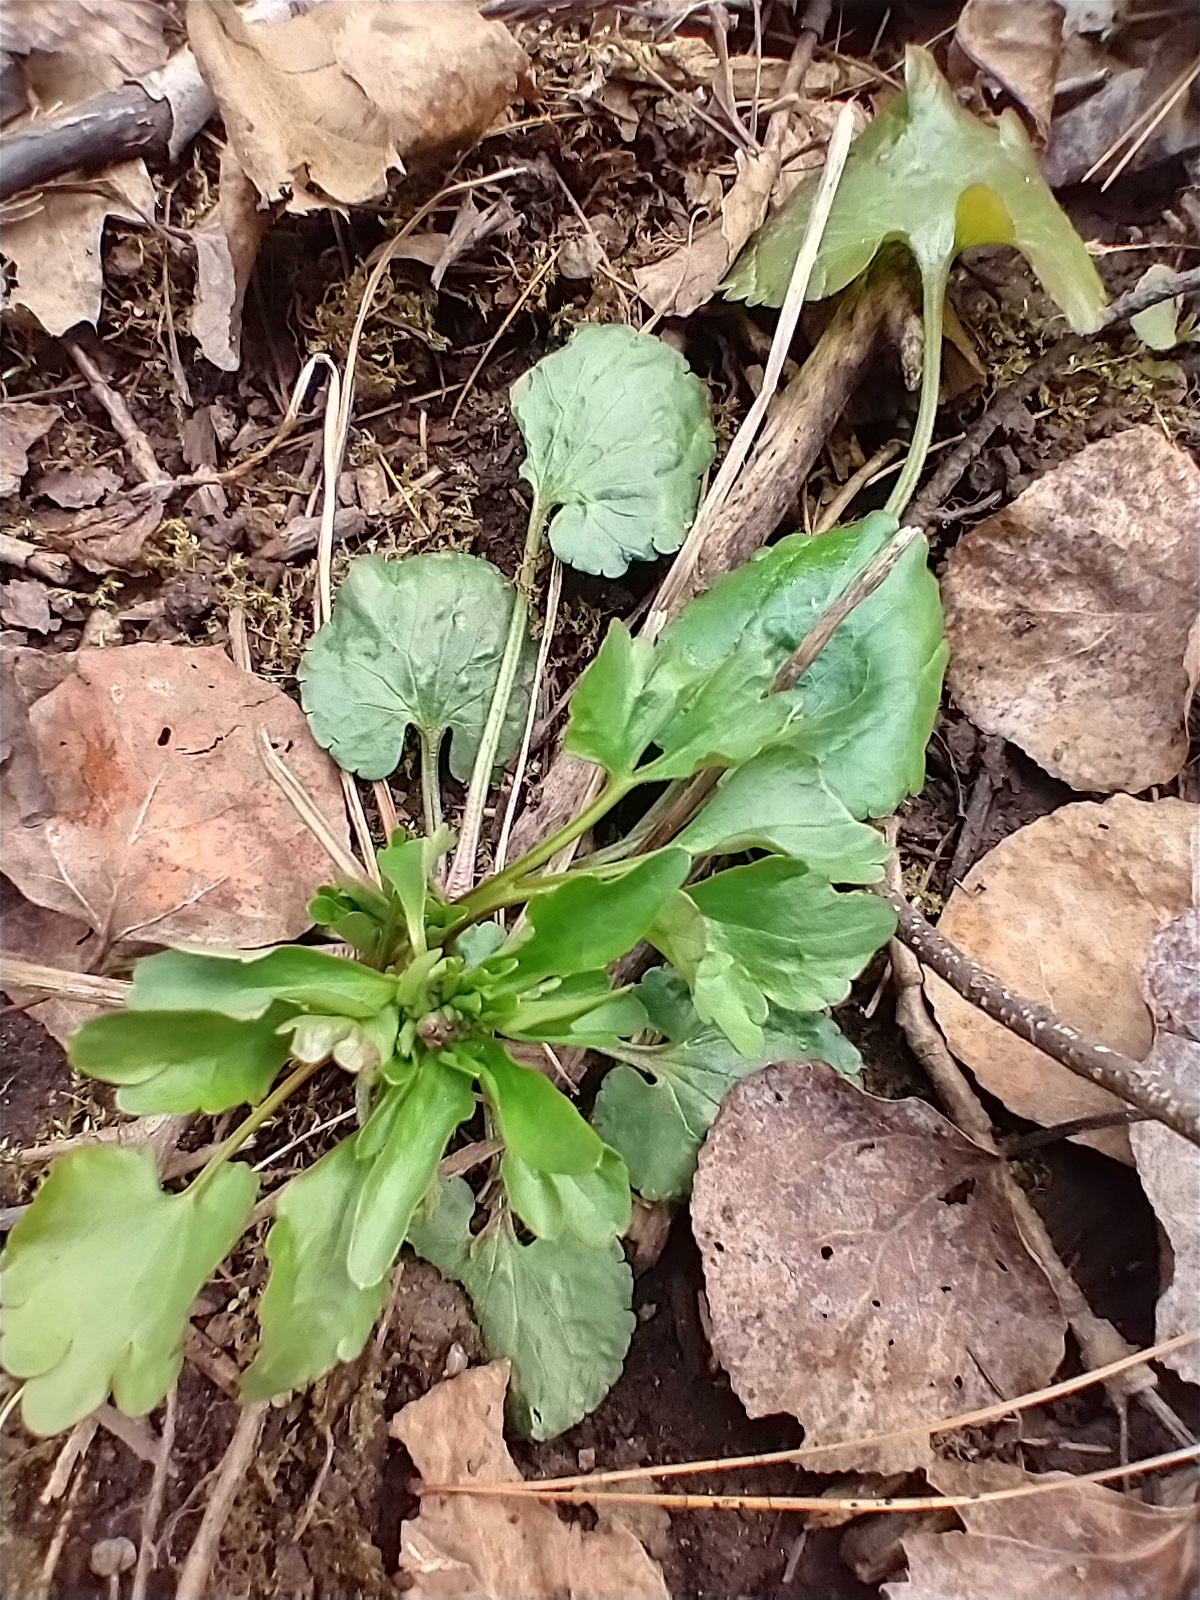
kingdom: Plantae
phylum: Tracheophyta
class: Magnoliopsida
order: Ranunculales
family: Ranunculaceae
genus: Ranunculus
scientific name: Ranunculus abortivus
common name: Early wood buttercup
